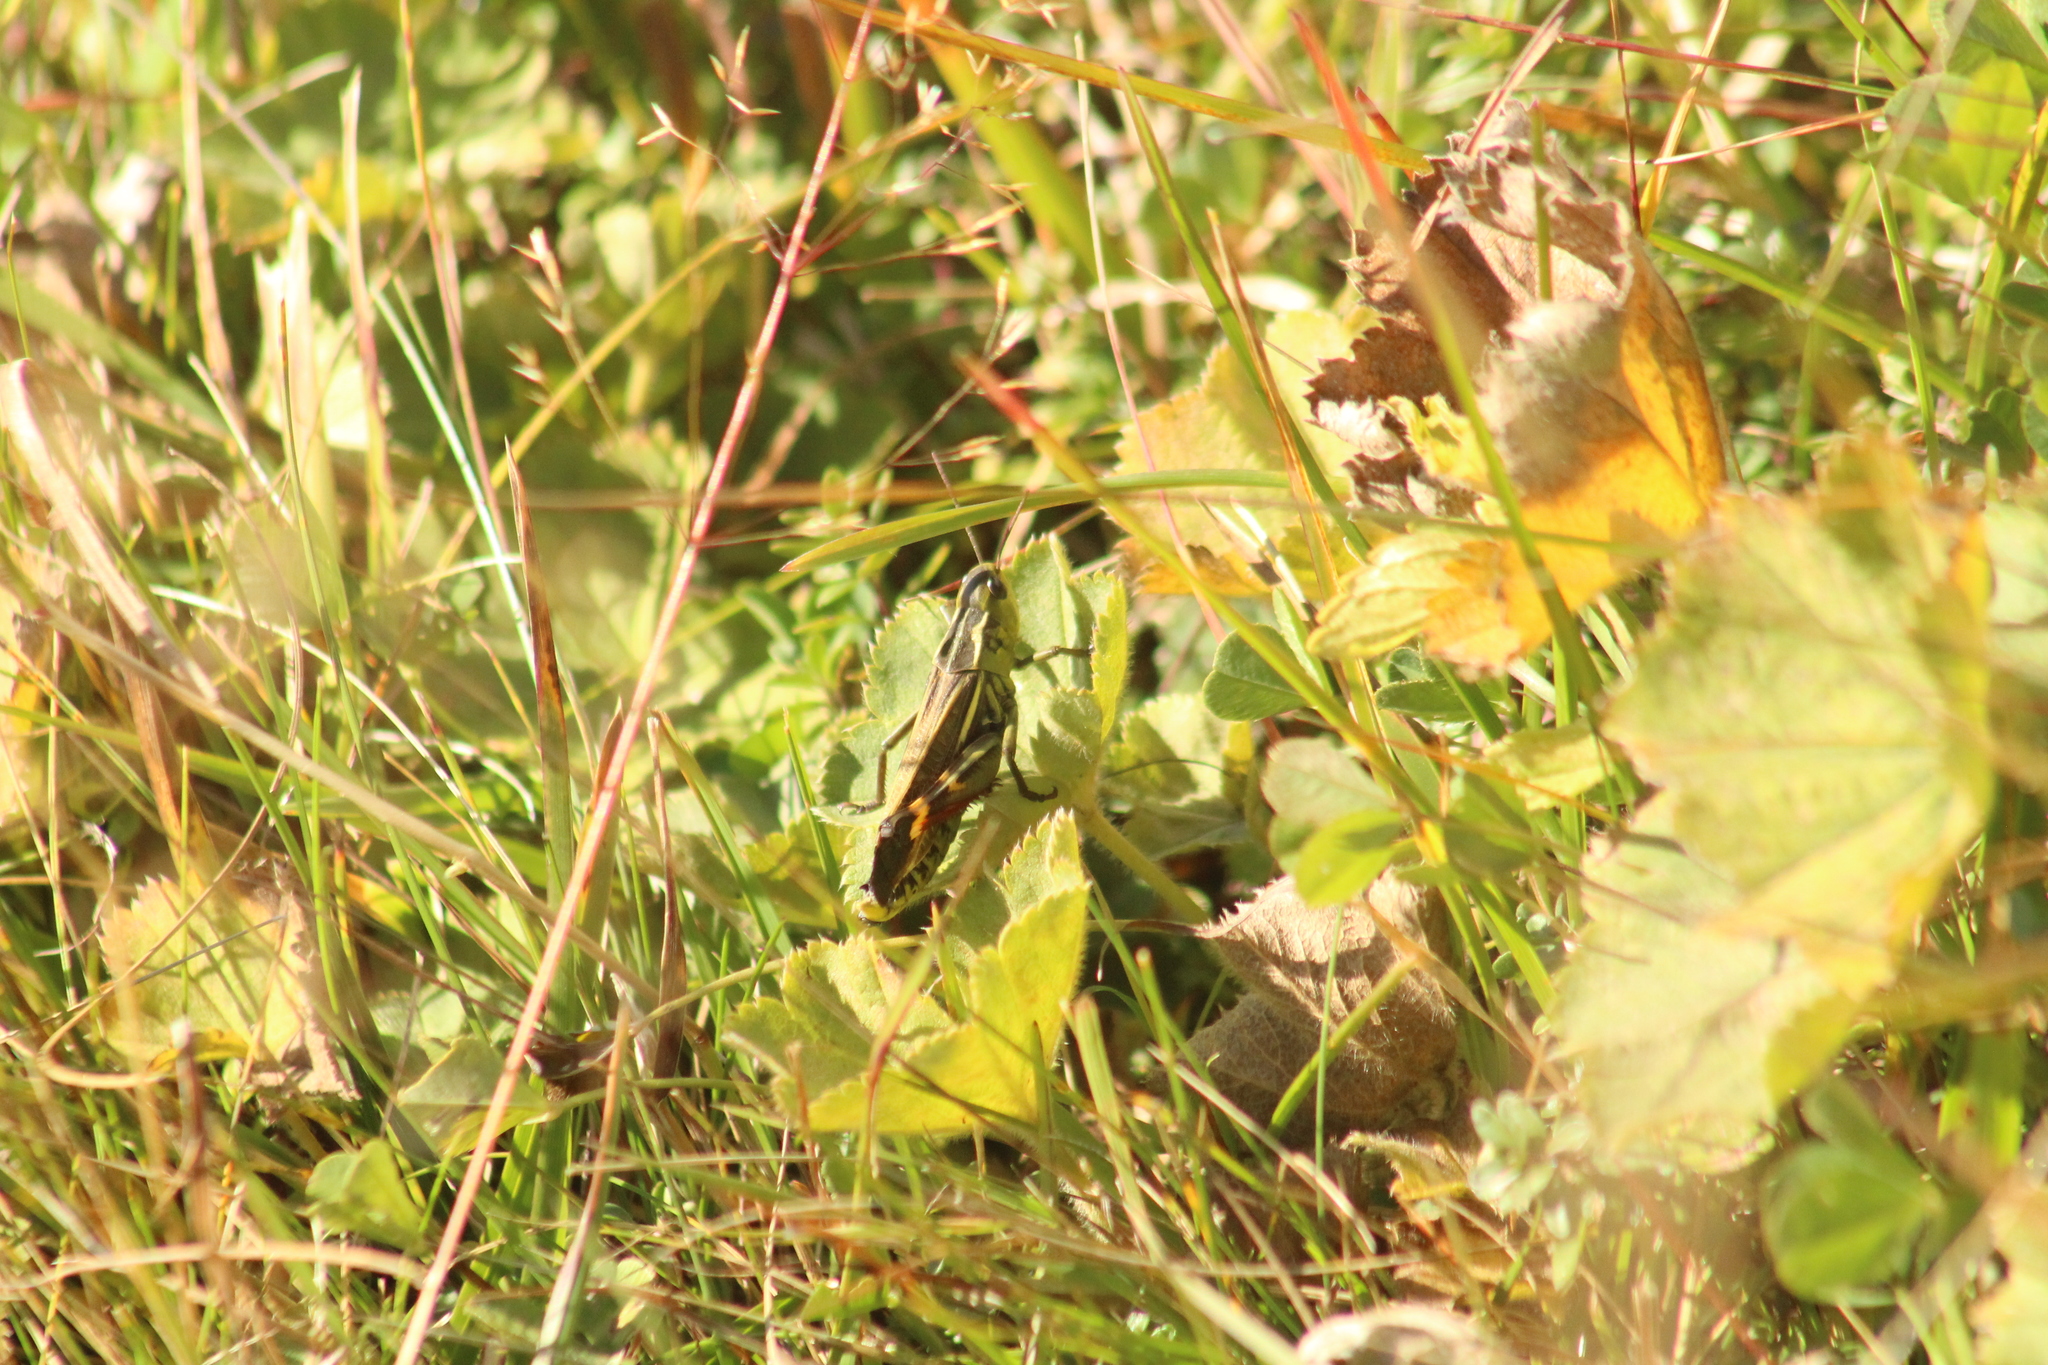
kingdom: Animalia
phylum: Arthropoda
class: Insecta
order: Orthoptera
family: Acrididae
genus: Arcyptera
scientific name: Arcyptera fusca
